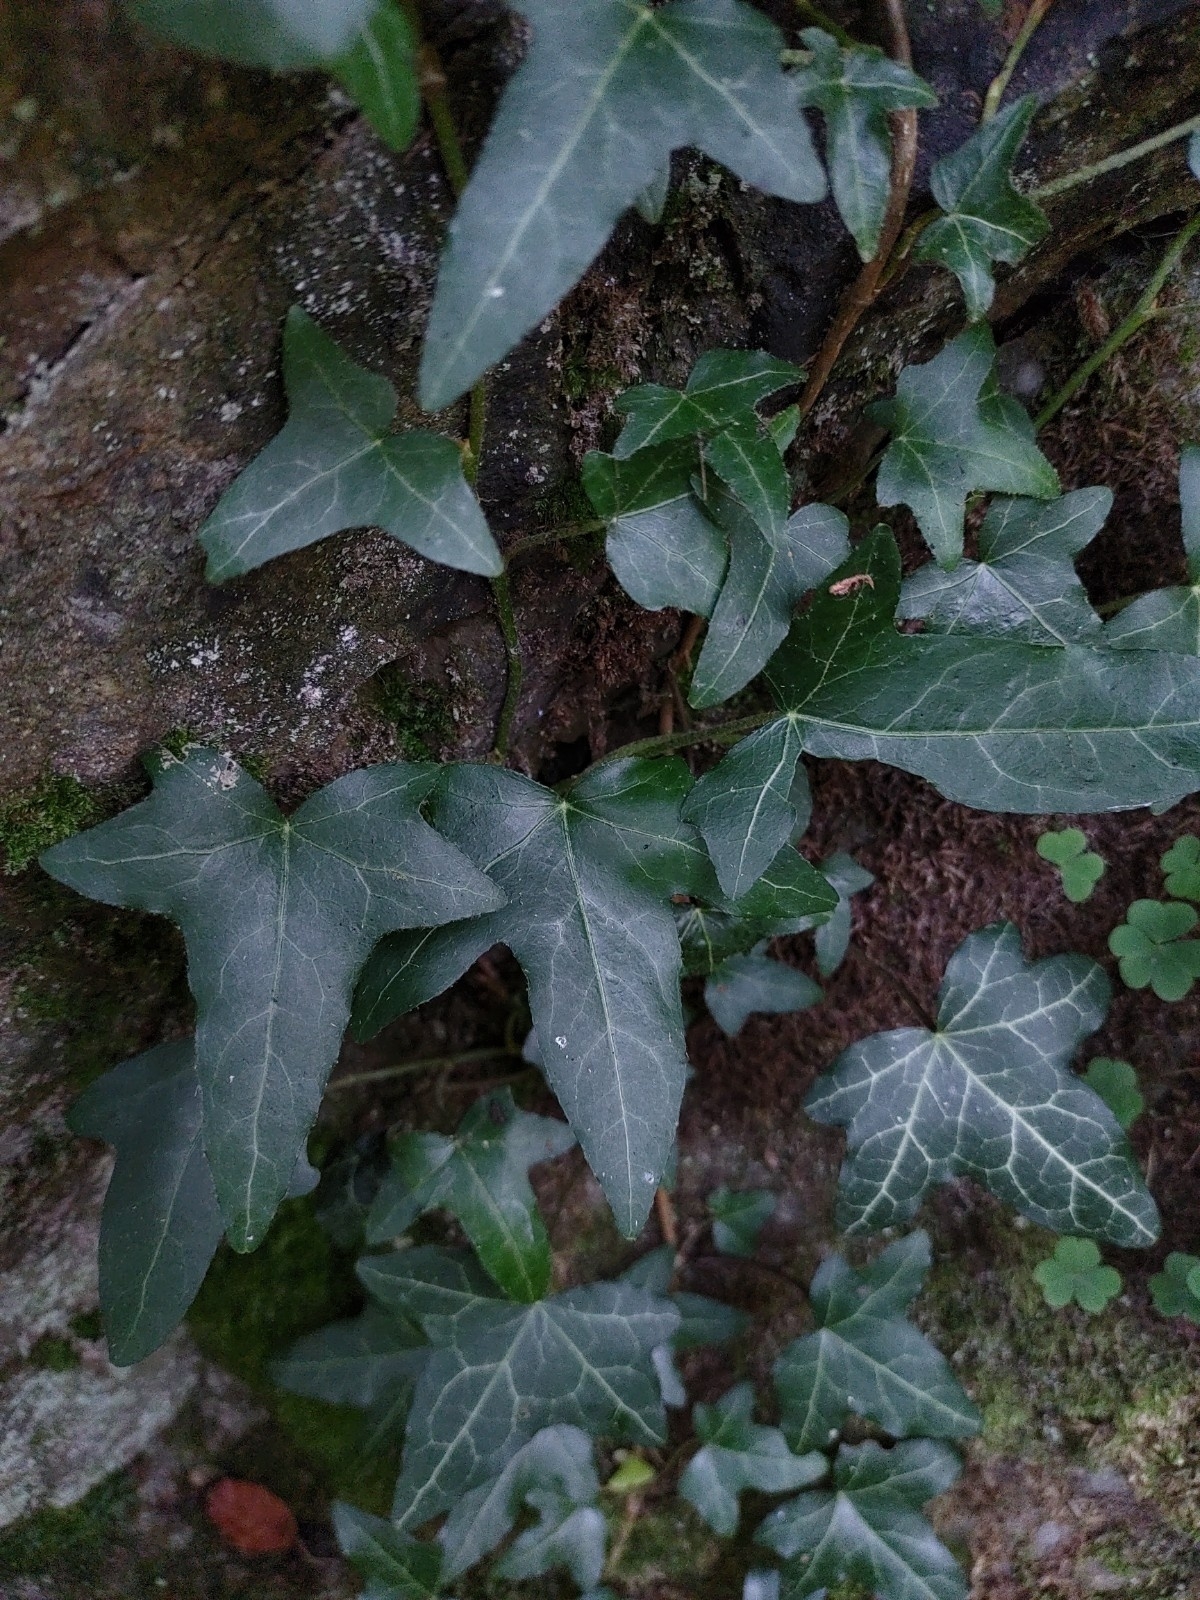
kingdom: Plantae
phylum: Tracheophyta
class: Magnoliopsida
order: Apiales
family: Araliaceae
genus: Hedera
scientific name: Hedera helix
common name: Ivy
